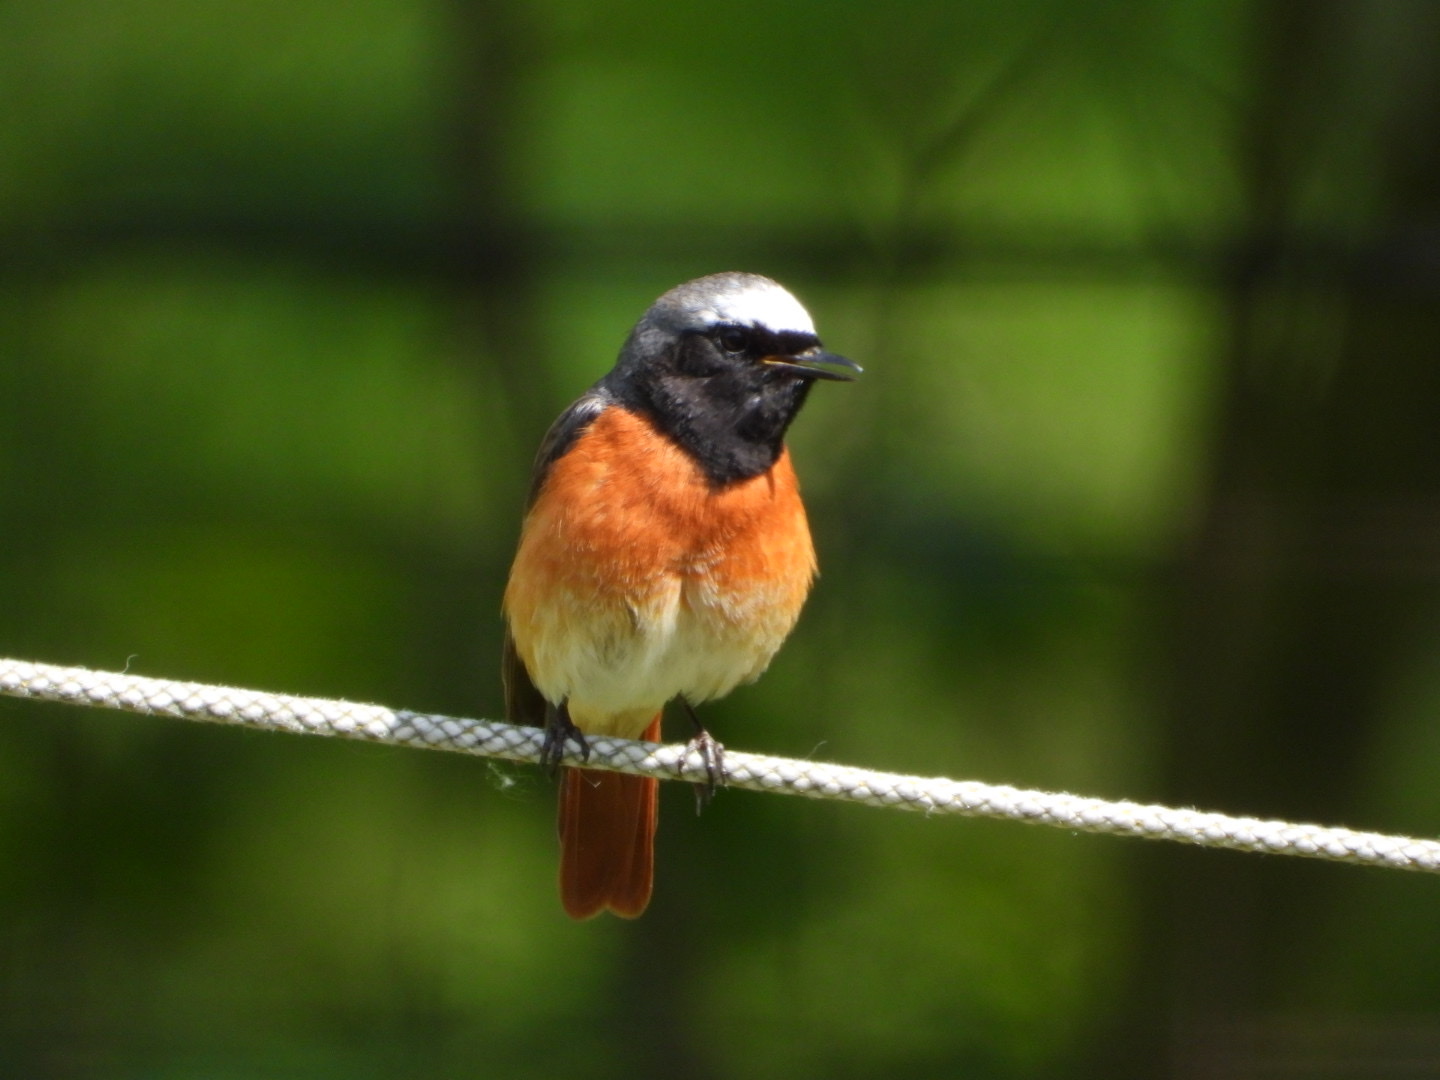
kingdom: Animalia
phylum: Chordata
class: Aves
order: Passeriformes
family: Muscicapidae
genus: Phoenicurus
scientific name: Phoenicurus phoenicurus
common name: Common redstart
